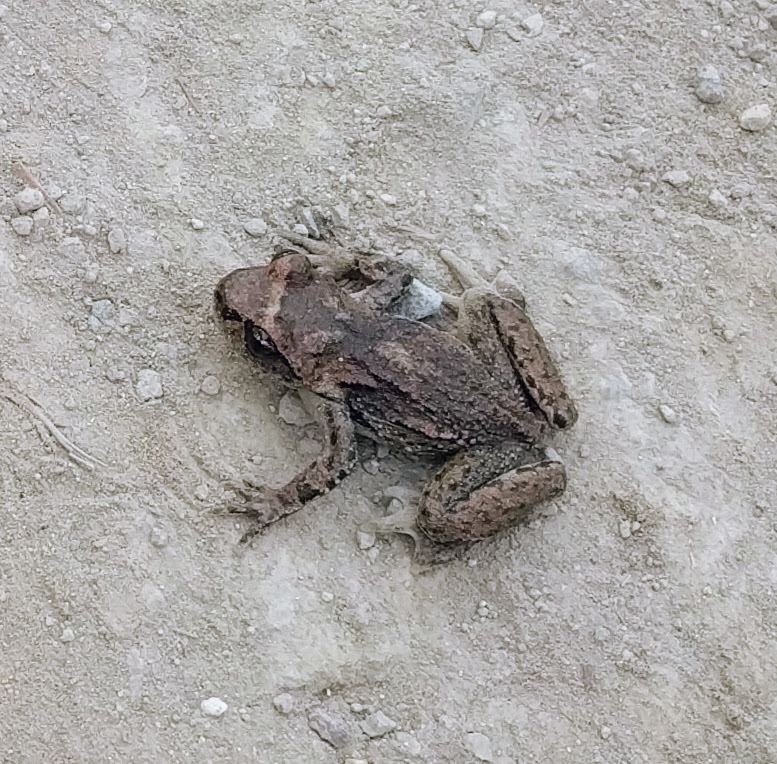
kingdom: Animalia
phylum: Chordata
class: Amphibia
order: Anura
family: Ascaphidae
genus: Ascaphus
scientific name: Ascaphus truei
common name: Tailed frog
